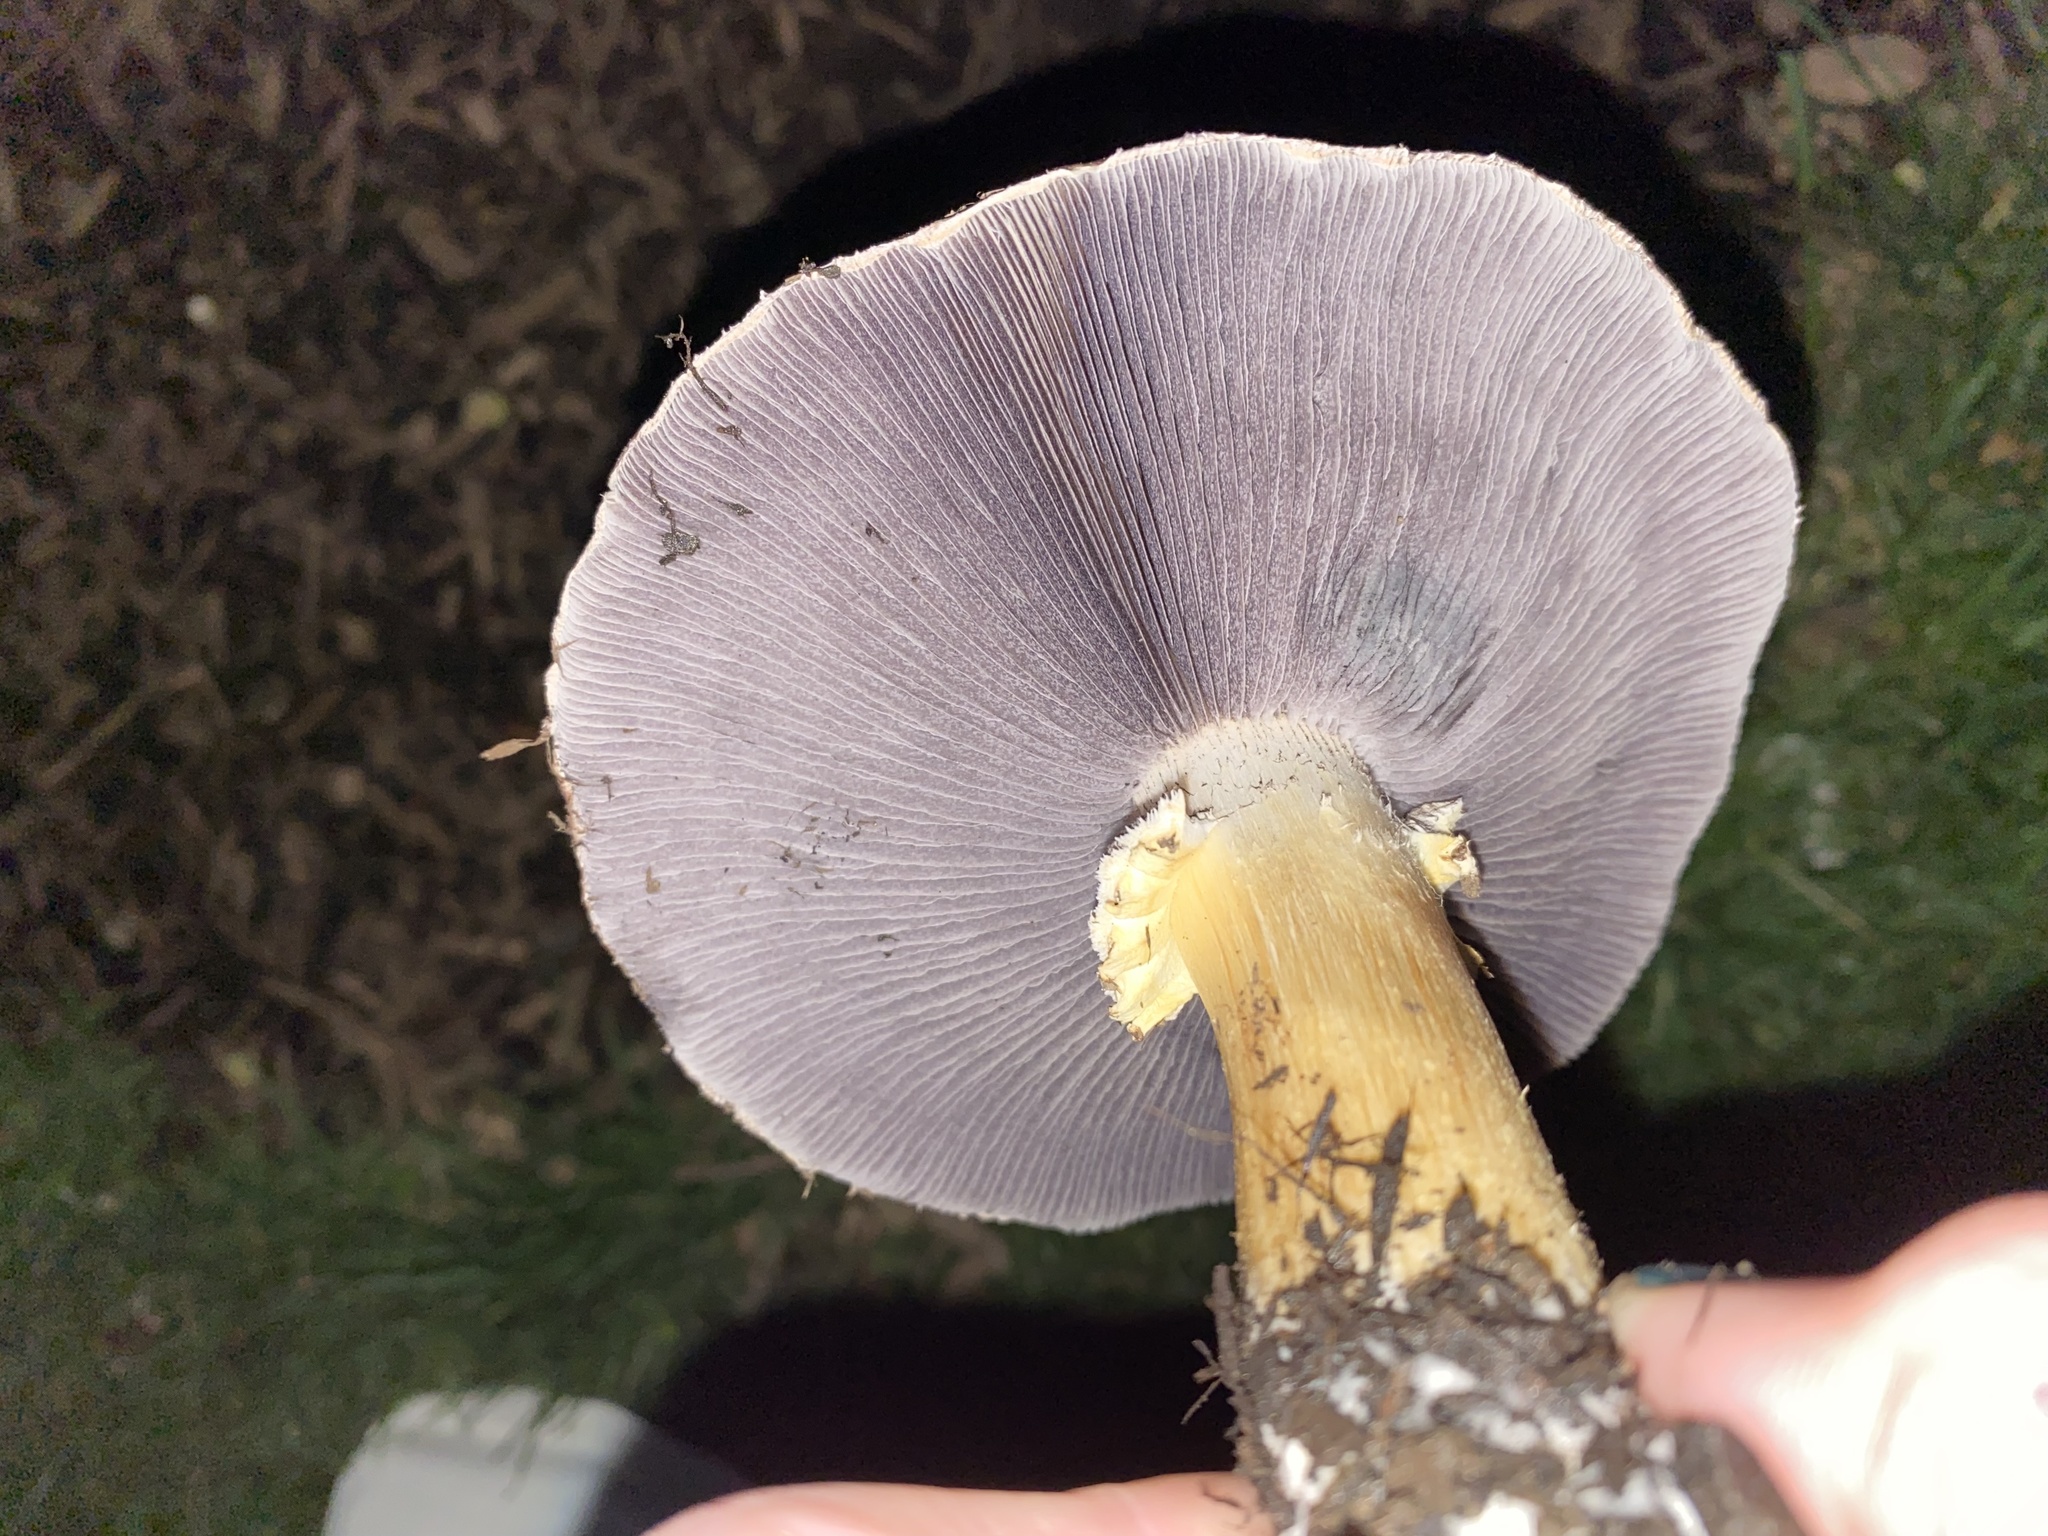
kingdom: Fungi
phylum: Basidiomycota
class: Agaricomycetes
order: Agaricales
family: Strophariaceae
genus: Stropharia
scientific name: Stropharia rugosoannulata
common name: Wine roundhead
